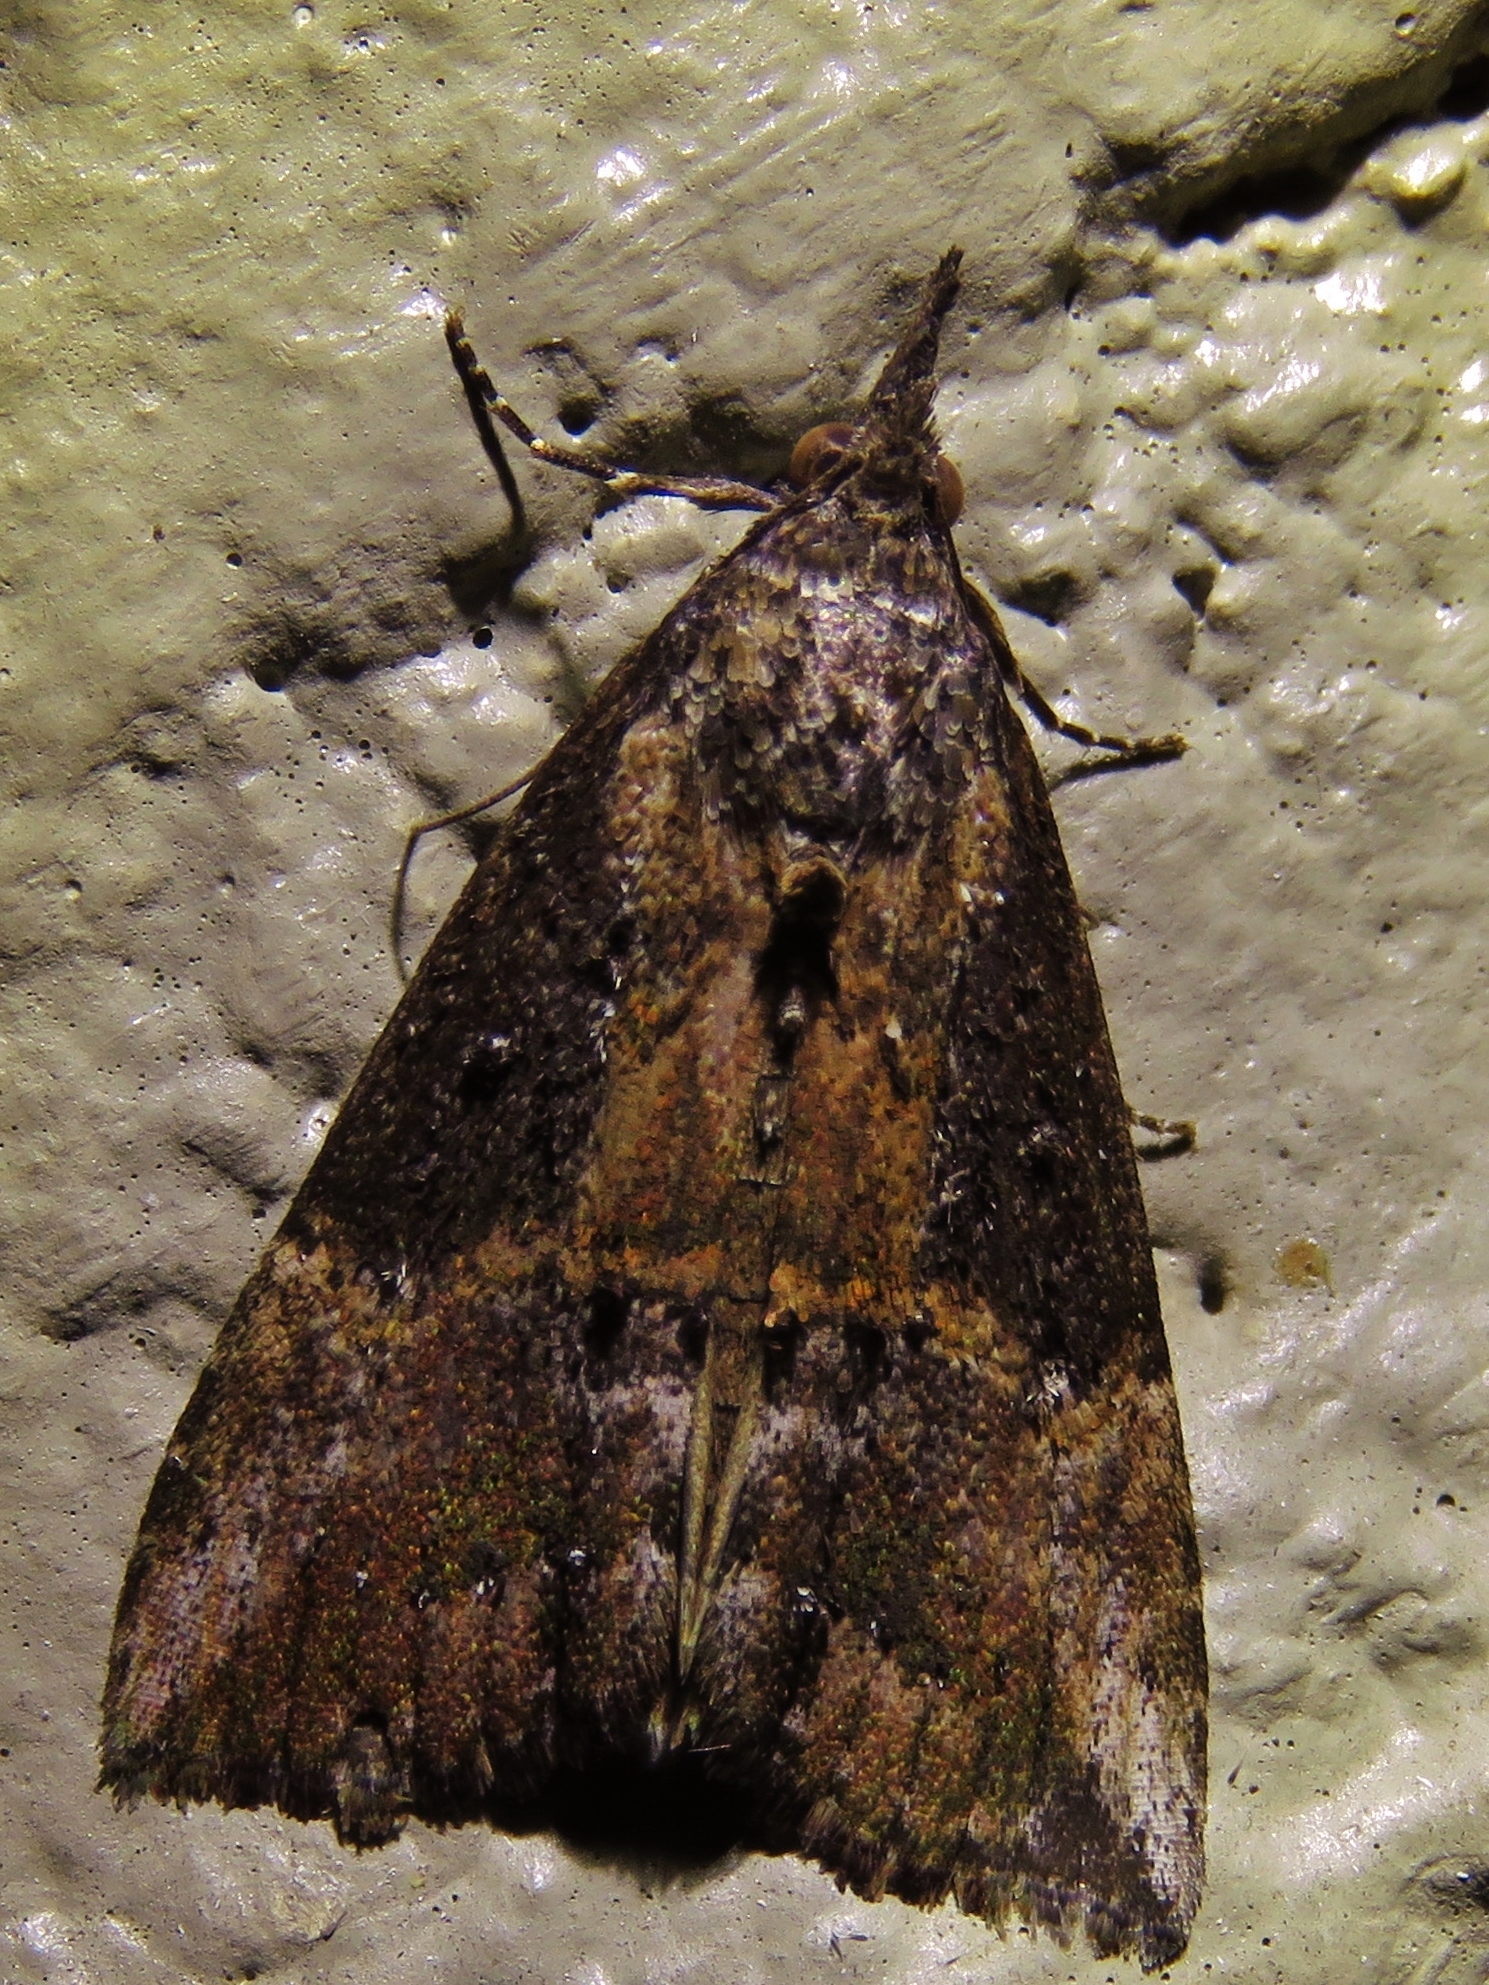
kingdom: Animalia
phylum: Arthropoda
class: Insecta
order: Lepidoptera
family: Erebidae
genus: Hypena
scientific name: Hypena scabra
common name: Green cloverworm
